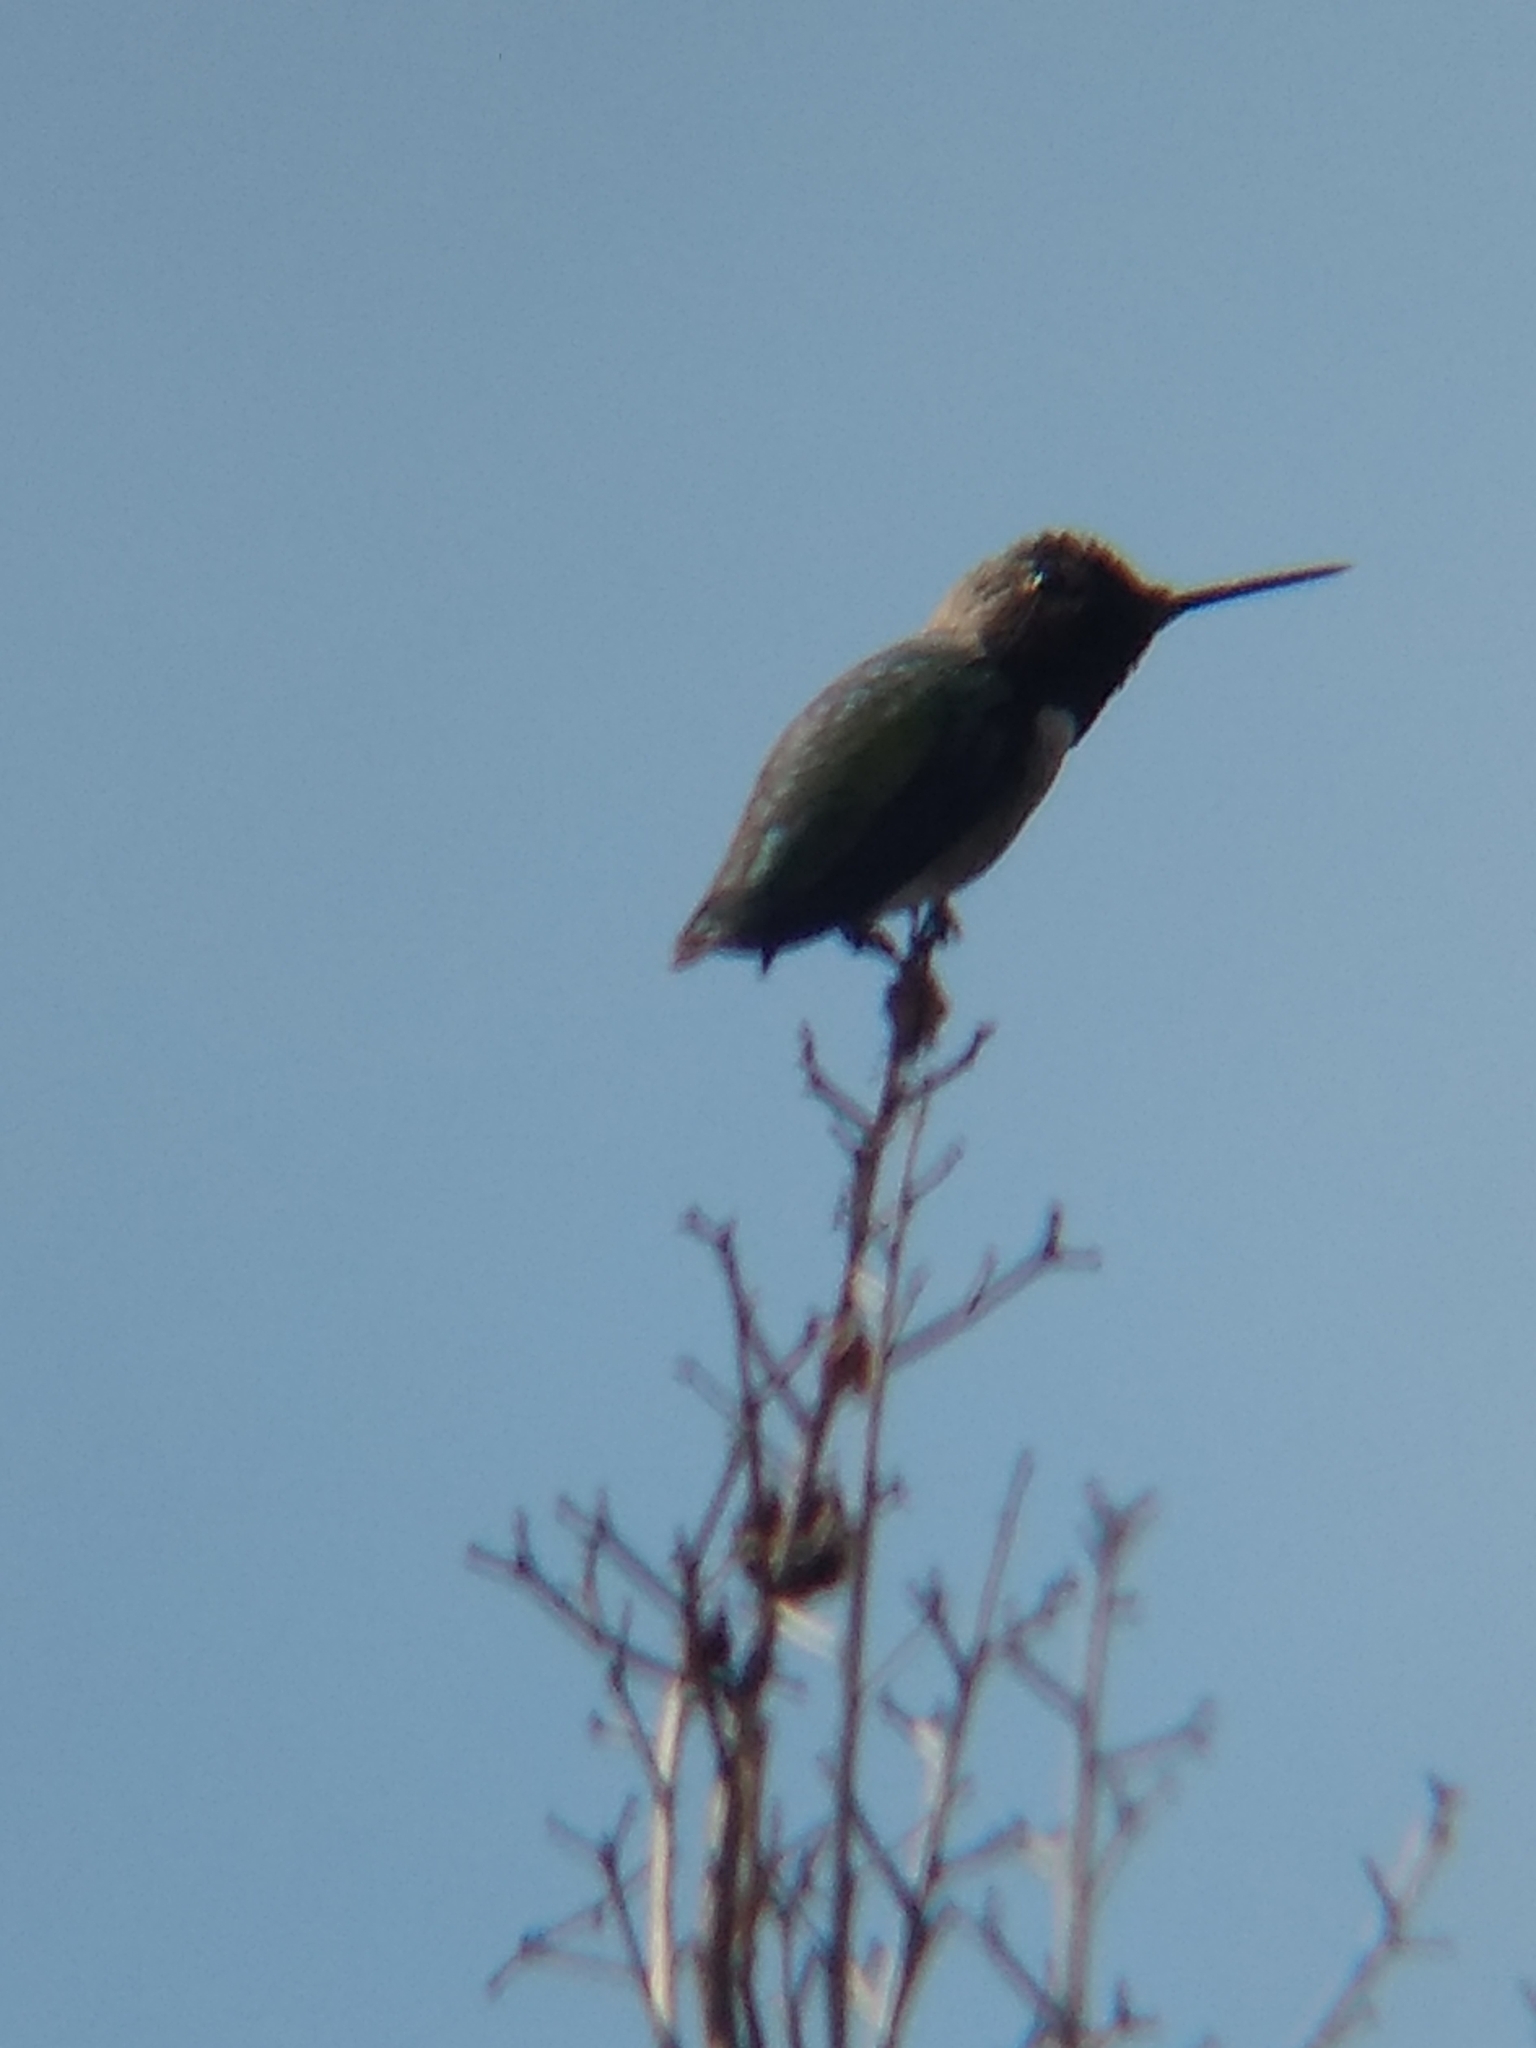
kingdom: Animalia
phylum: Chordata
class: Aves
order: Apodiformes
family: Trochilidae
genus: Calypte
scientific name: Calypte anna
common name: Anna's hummingbird
